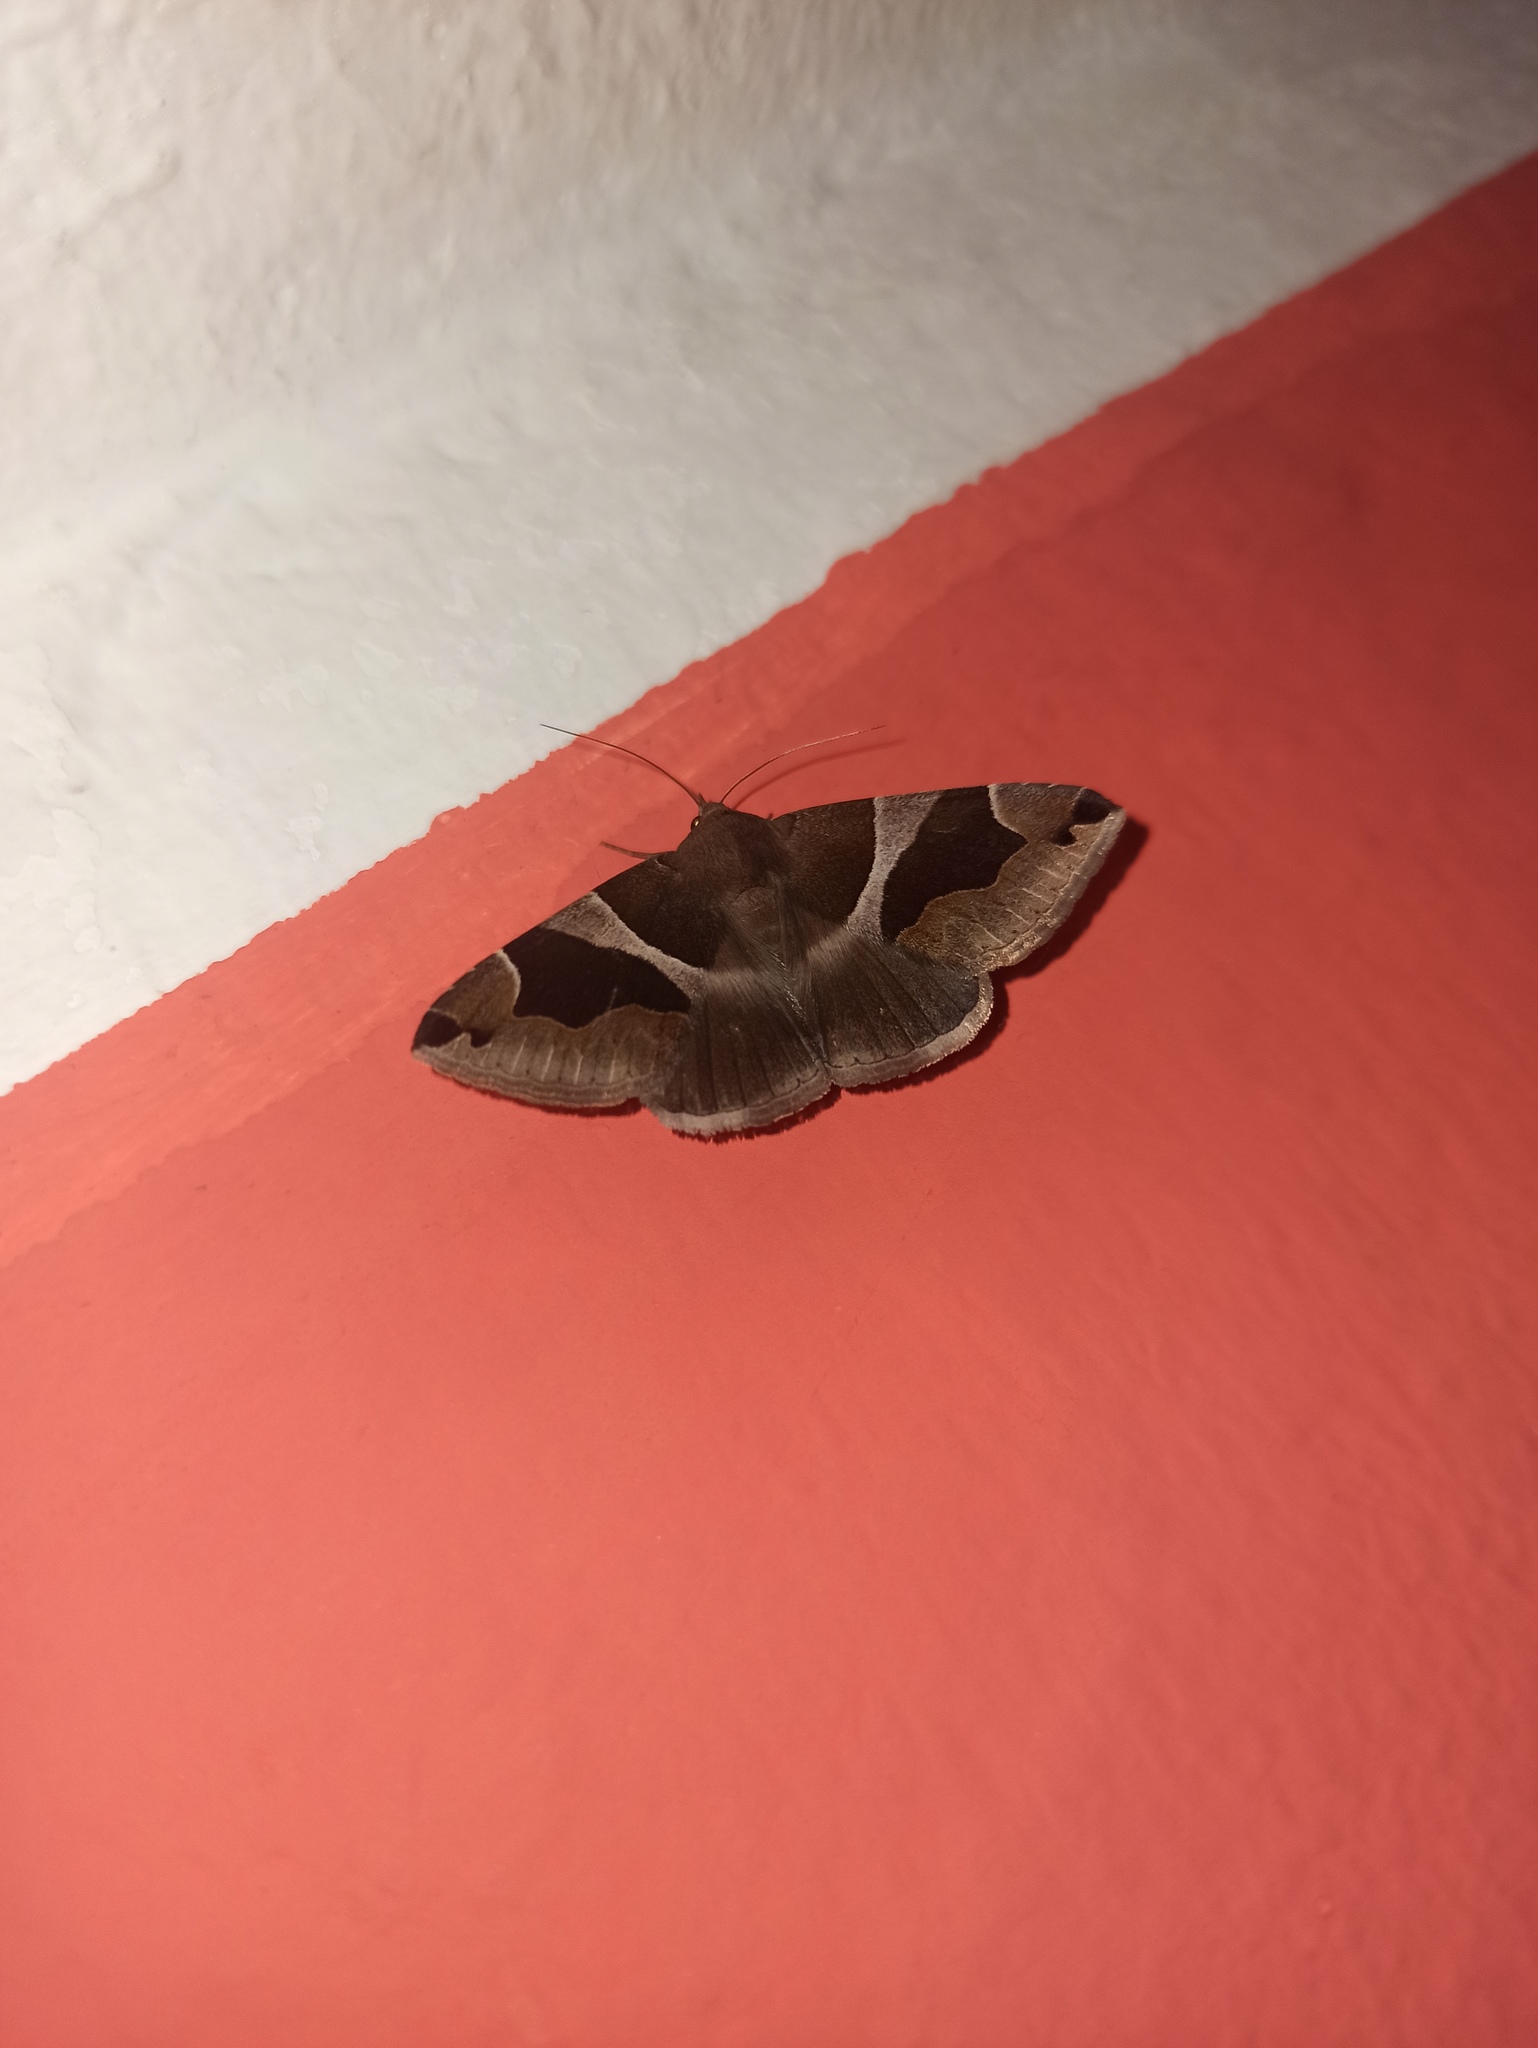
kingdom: Animalia
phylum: Arthropoda
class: Insecta
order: Lepidoptera
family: Erebidae
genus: Dysgonia
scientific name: Dysgonia algira
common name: Passenger
